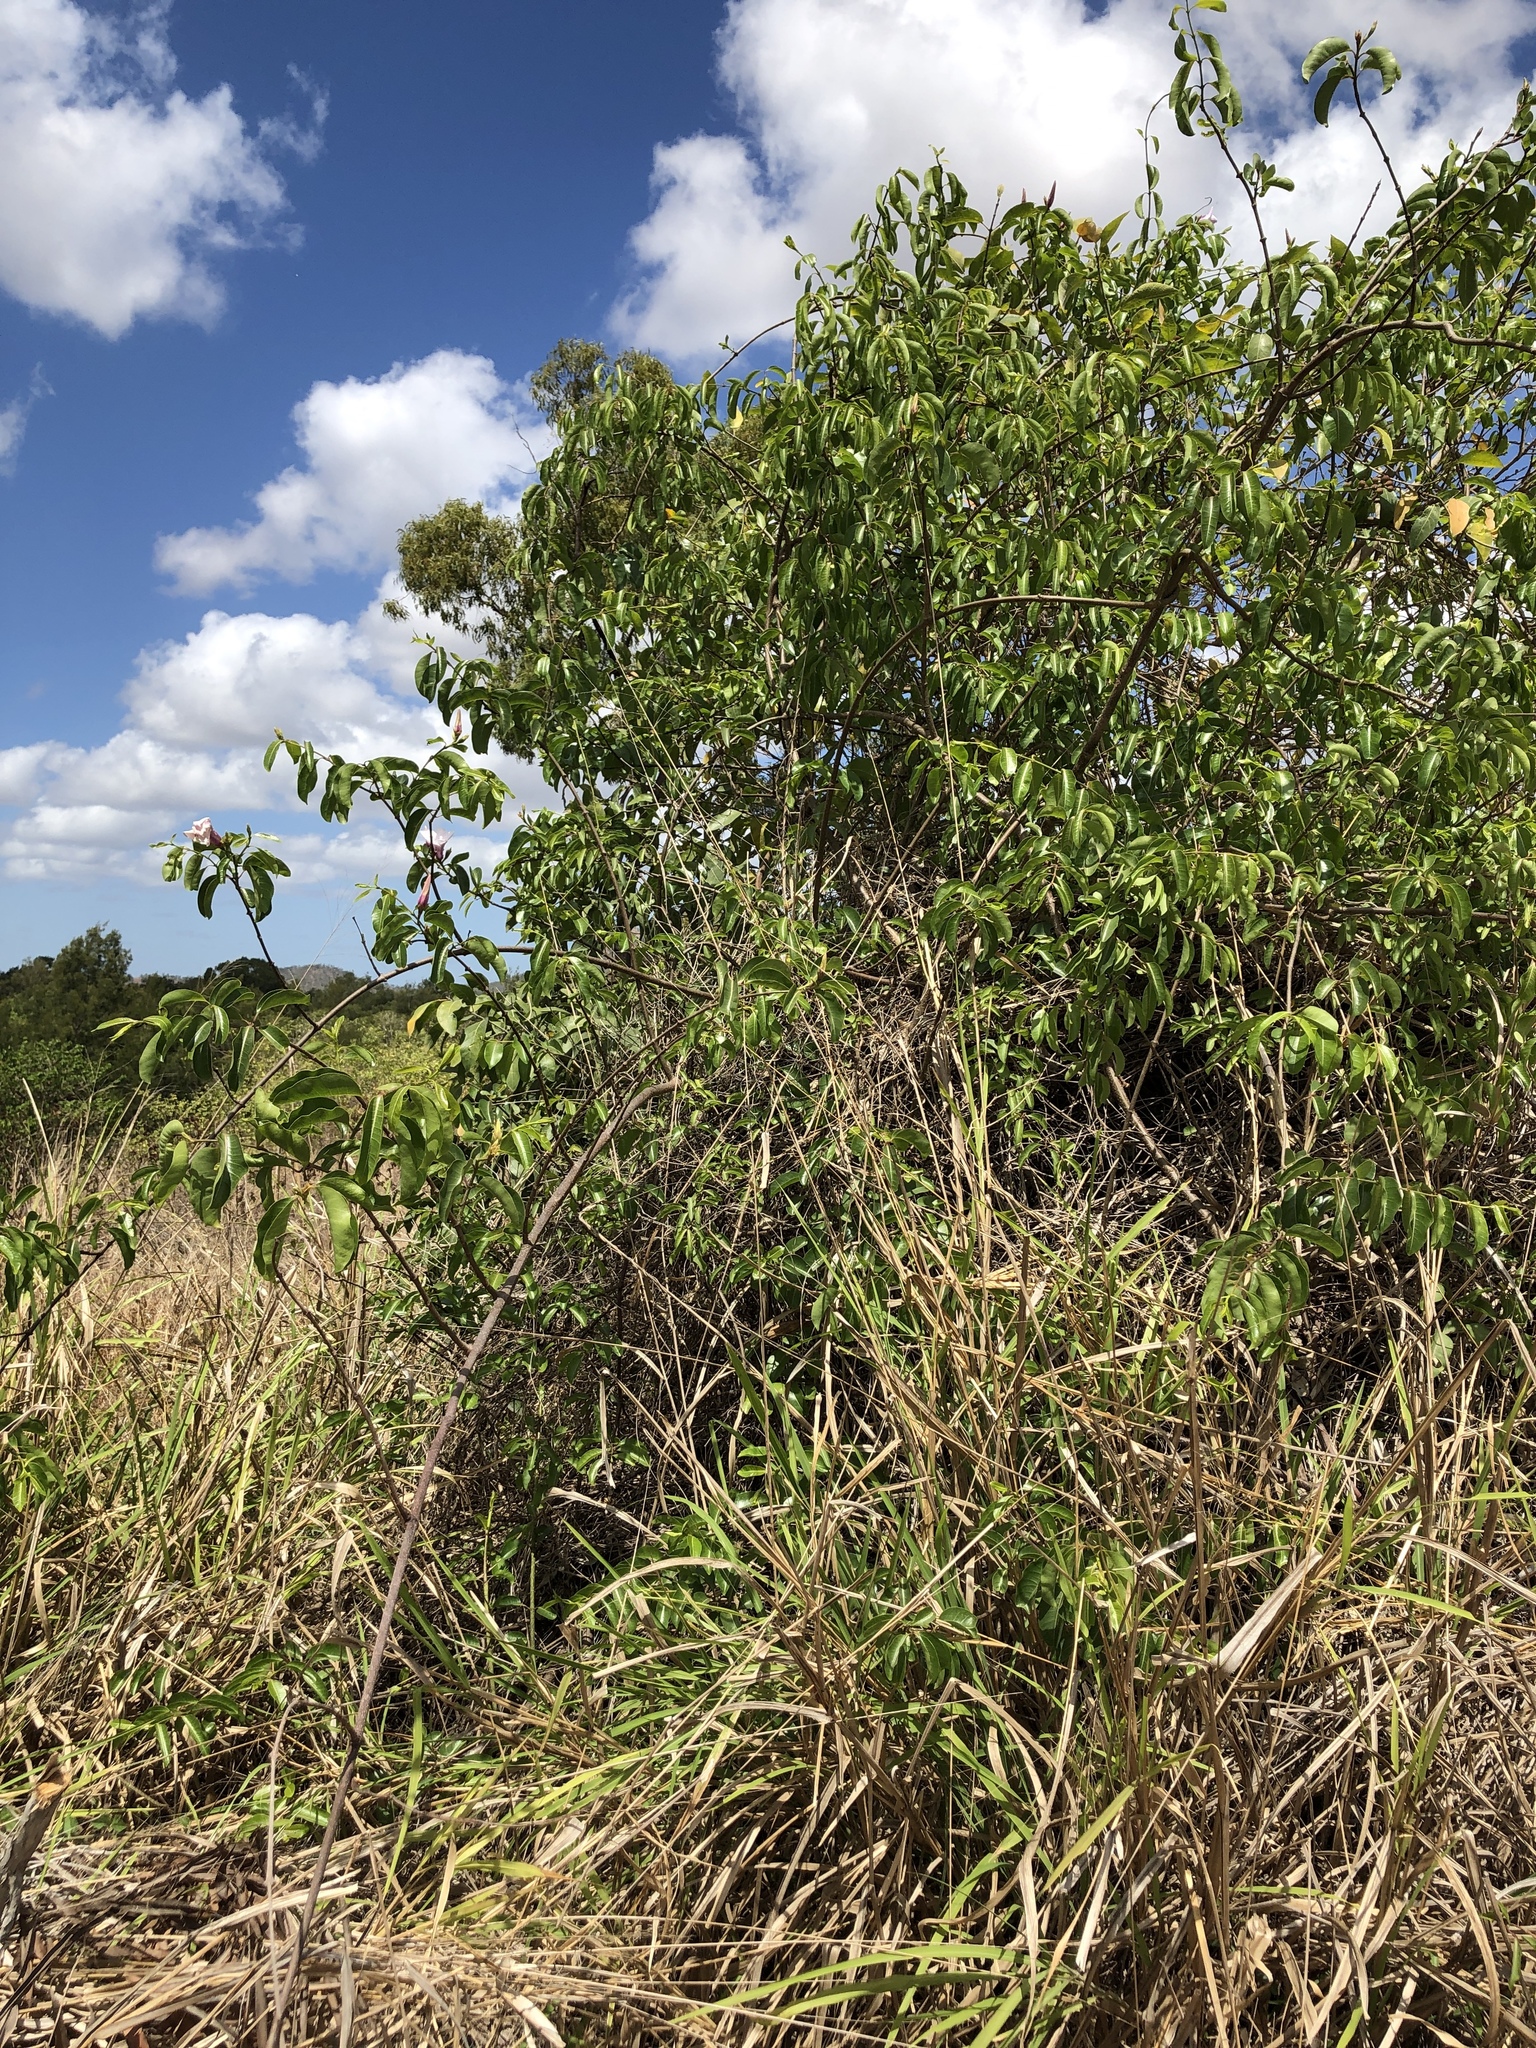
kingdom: Plantae
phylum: Tracheophyta
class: Magnoliopsida
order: Gentianales
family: Apocynaceae
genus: Cryptostegia
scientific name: Cryptostegia grandiflora
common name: Palay rubbervine
